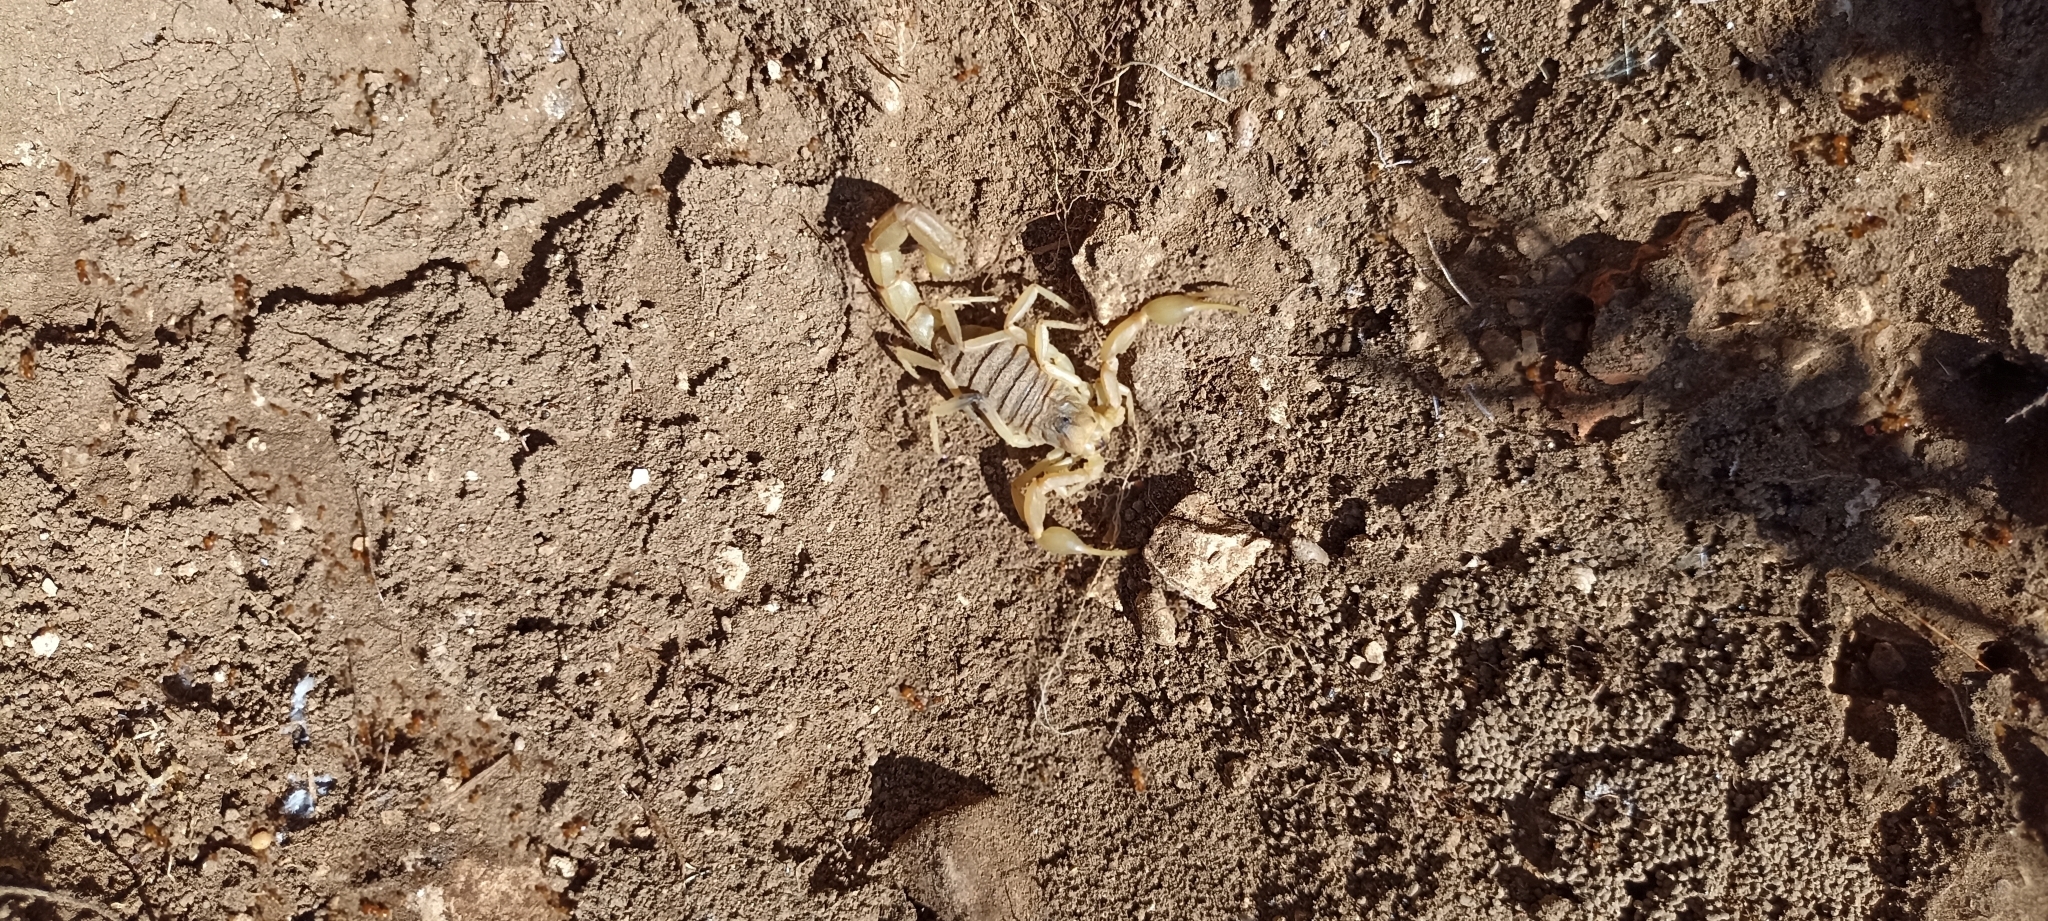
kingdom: Animalia
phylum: Arthropoda
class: Arachnida
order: Scorpiones
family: Buthidae
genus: Buthus
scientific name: Buthus occitanus
